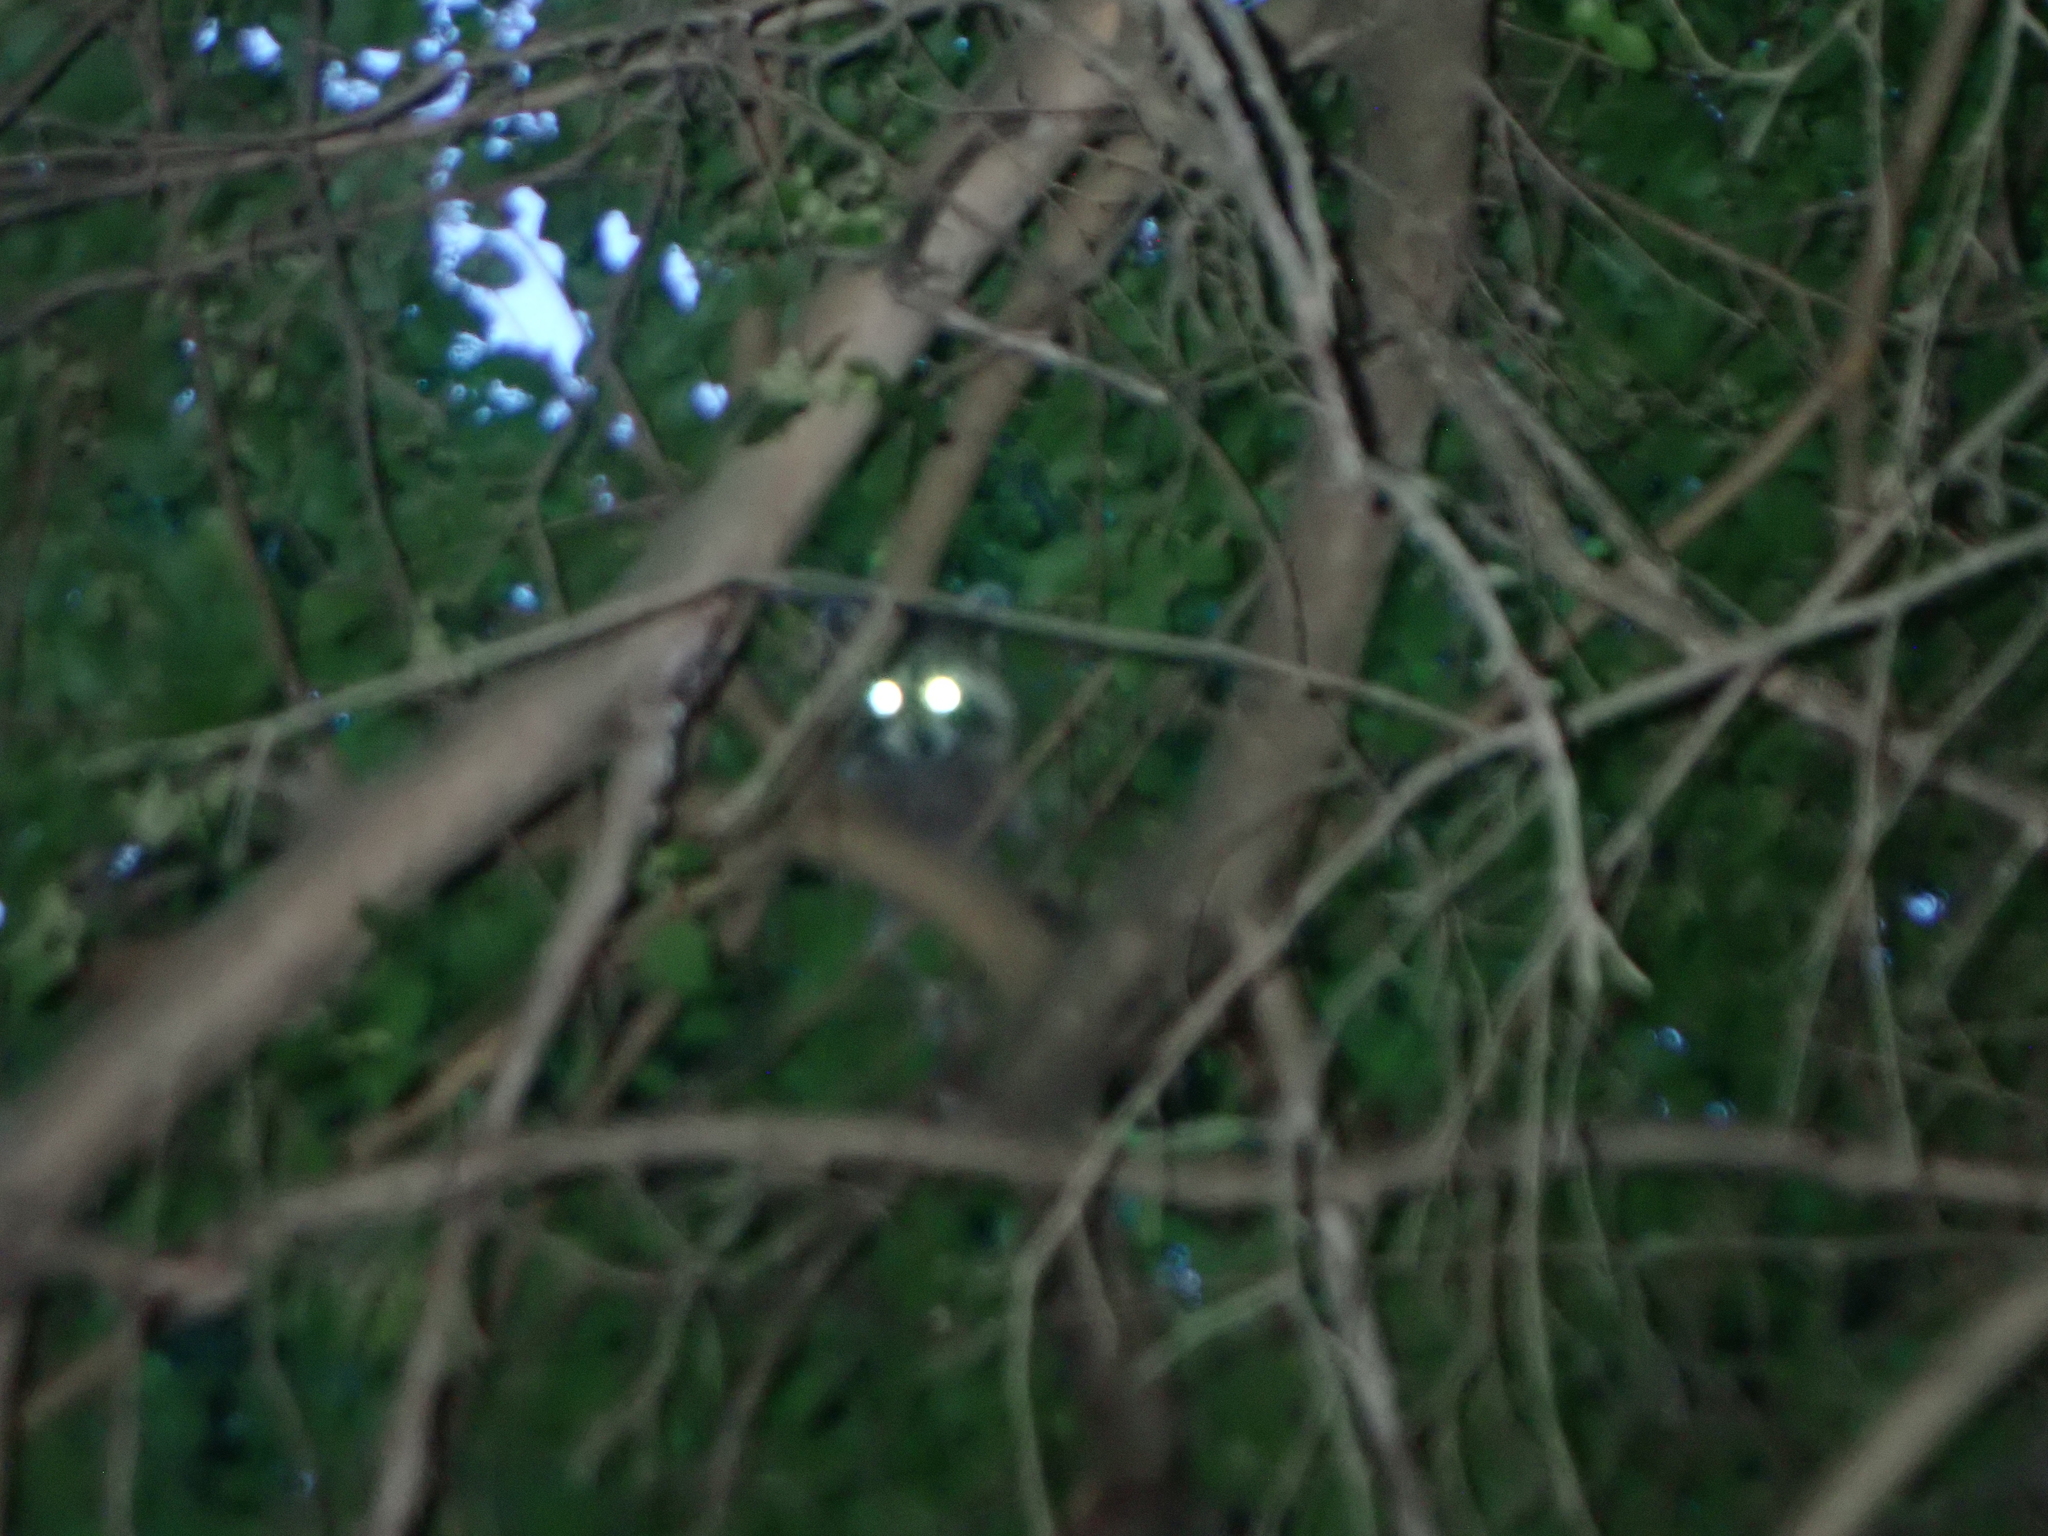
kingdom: Animalia
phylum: Chordata
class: Mammalia
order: Carnivora
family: Procyonidae
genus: Procyon
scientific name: Procyon lotor
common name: Raccoon
